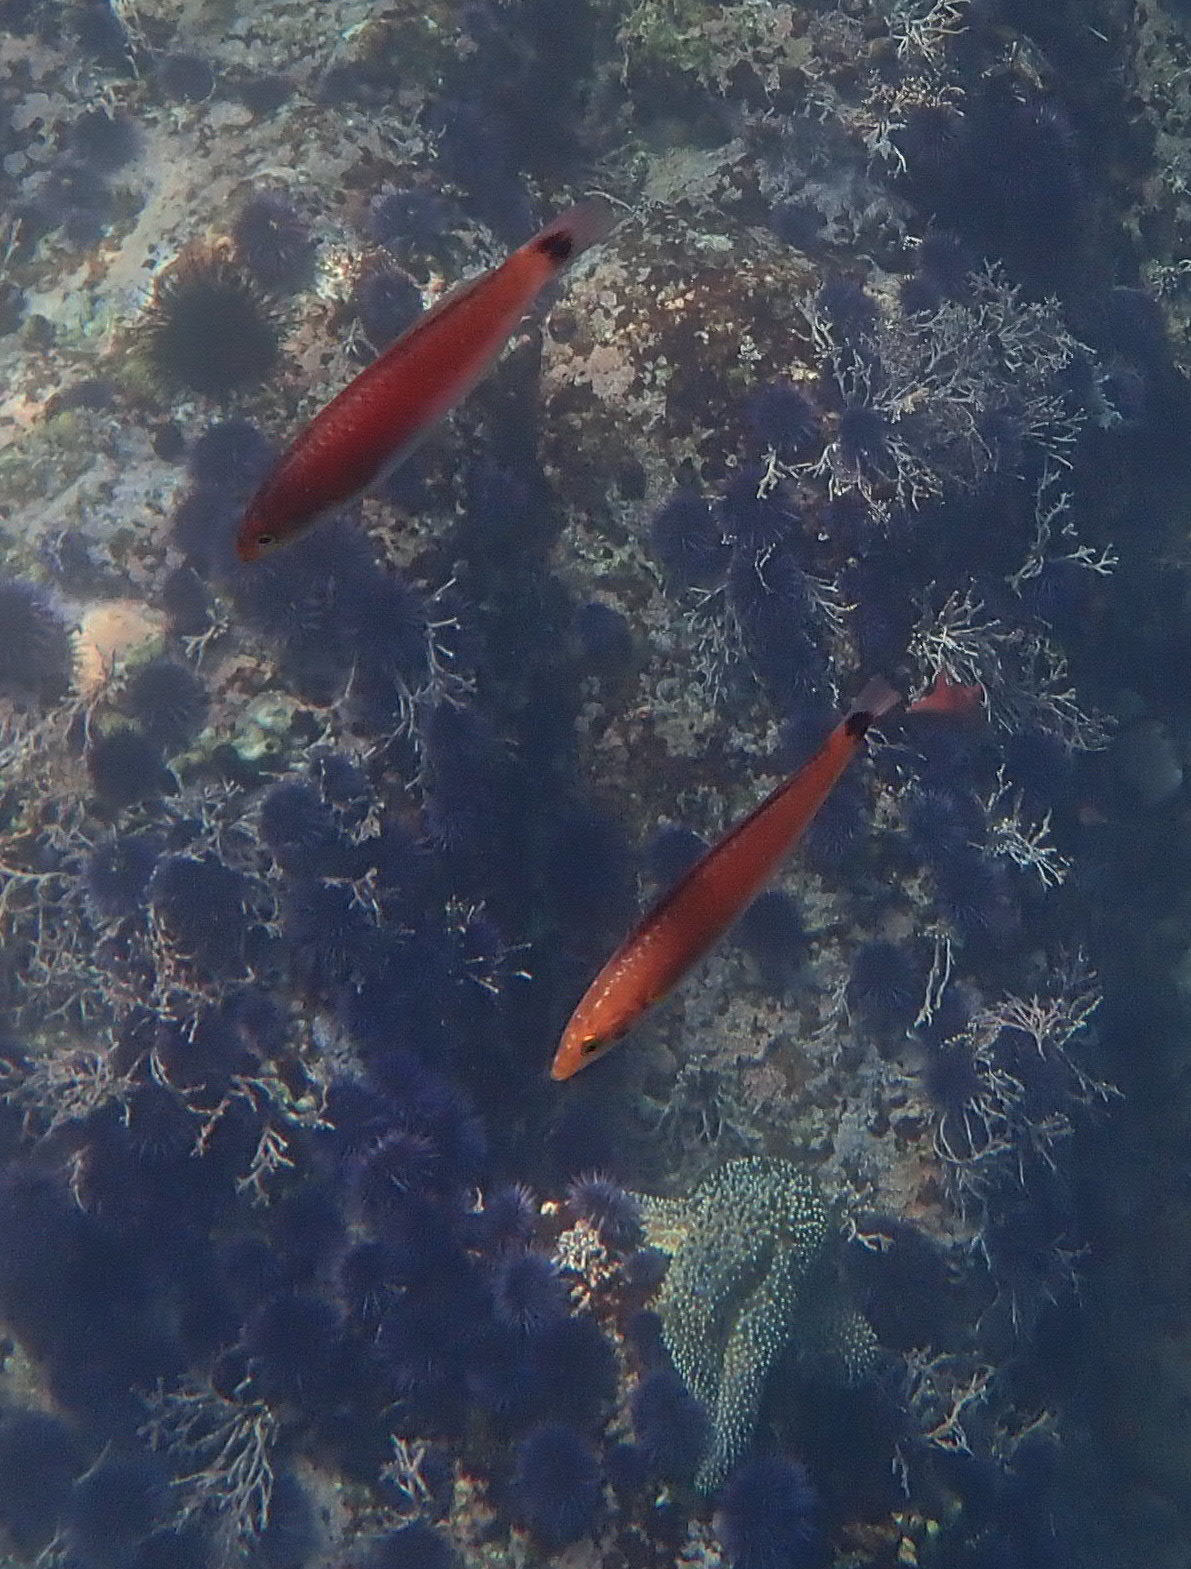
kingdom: Animalia
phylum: Chordata
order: Perciformes
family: Labridae
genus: Oxyjulis
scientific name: Oxyjulis californica
